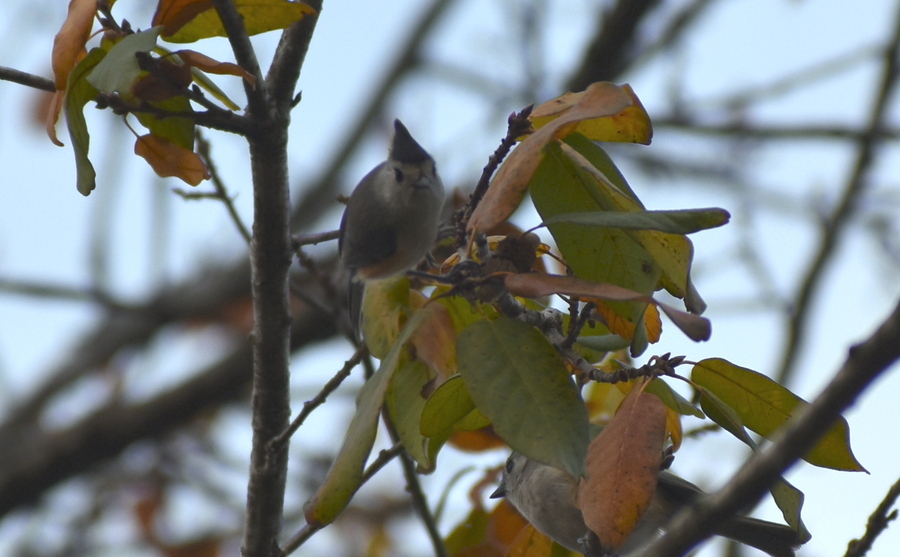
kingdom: Animalia
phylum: Chordata
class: Aves
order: Passeriformes
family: Paridae
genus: Baeolophus
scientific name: Baeolophus atricristatus
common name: Black-crested titmouse
